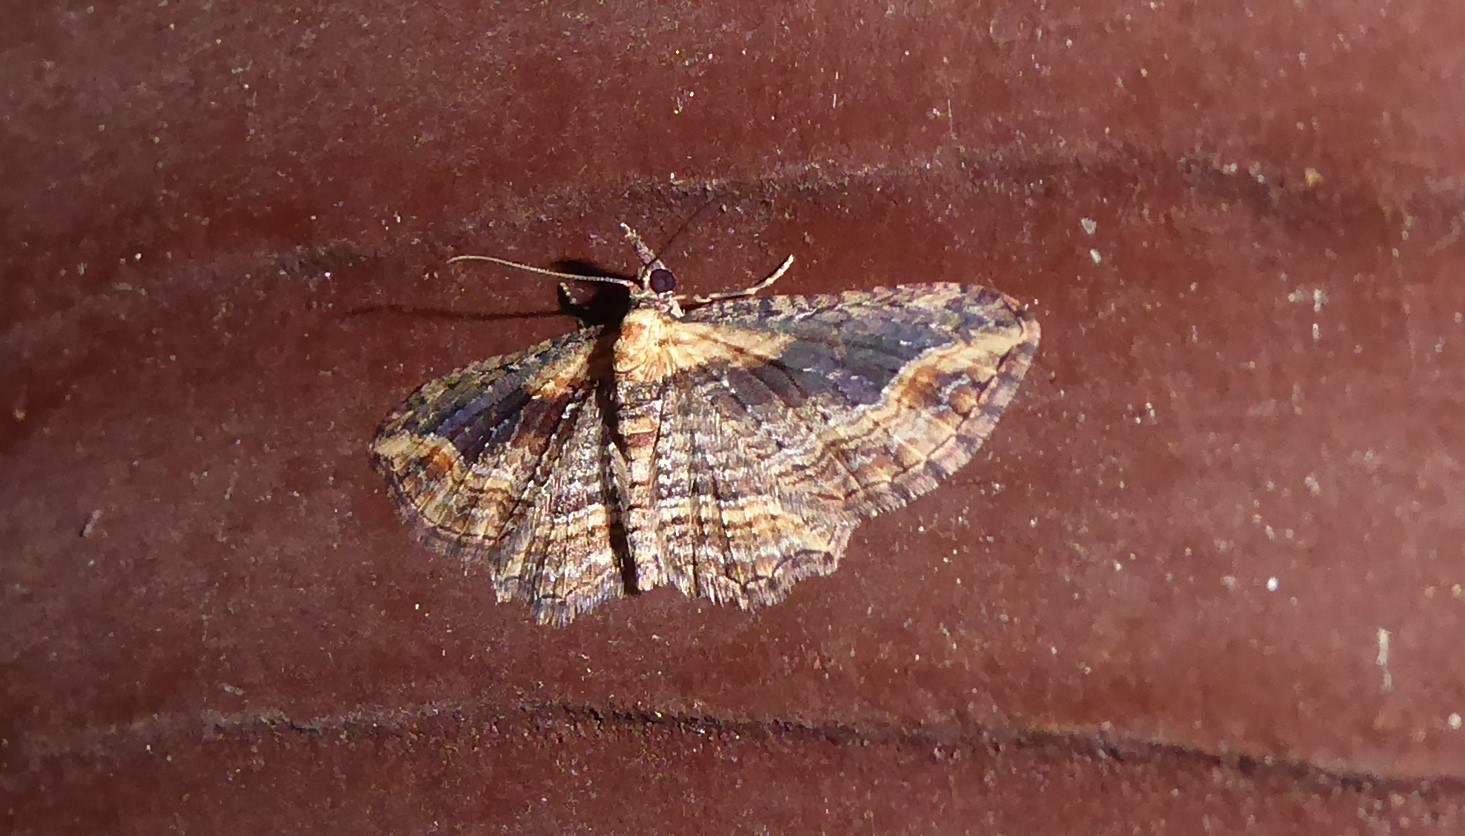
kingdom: Animalia
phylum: Arthropoda
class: Insecta
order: Lepidoptera
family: Geometridae
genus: Chloroclystis
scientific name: Chloroclystis filata
